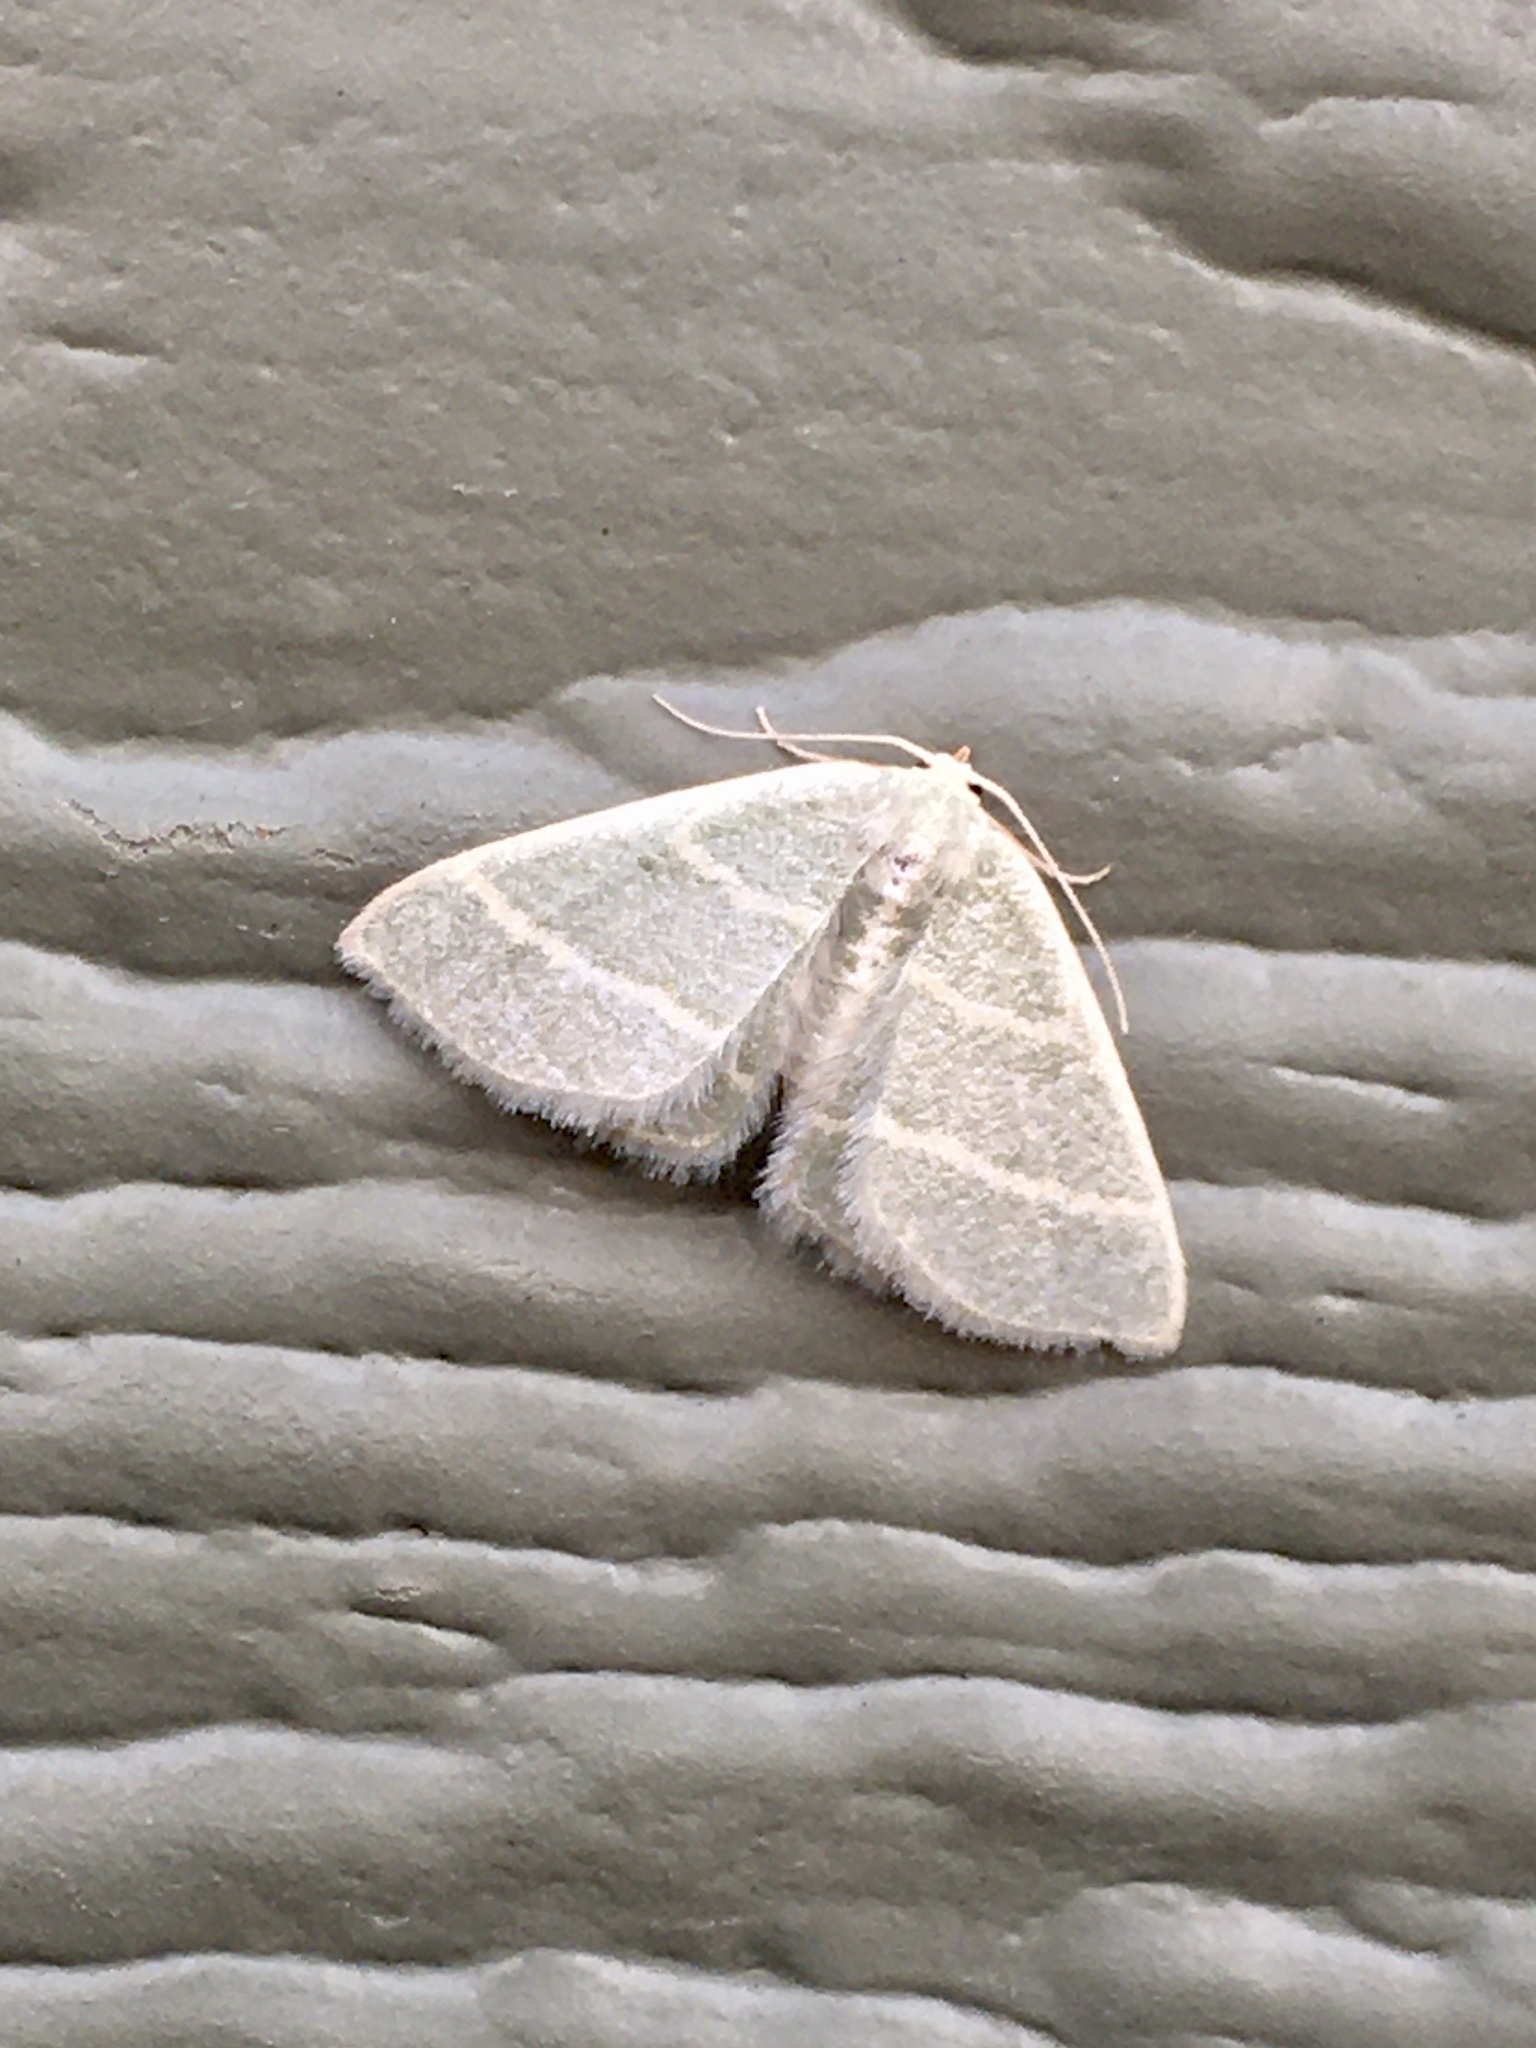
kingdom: Animalia
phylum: Arthropoda
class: Insecta
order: Lepidoptera
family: Geometridae
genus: Chlorochlamys
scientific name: Chlorochlamys chloroleucaria
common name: Blackberry looper
